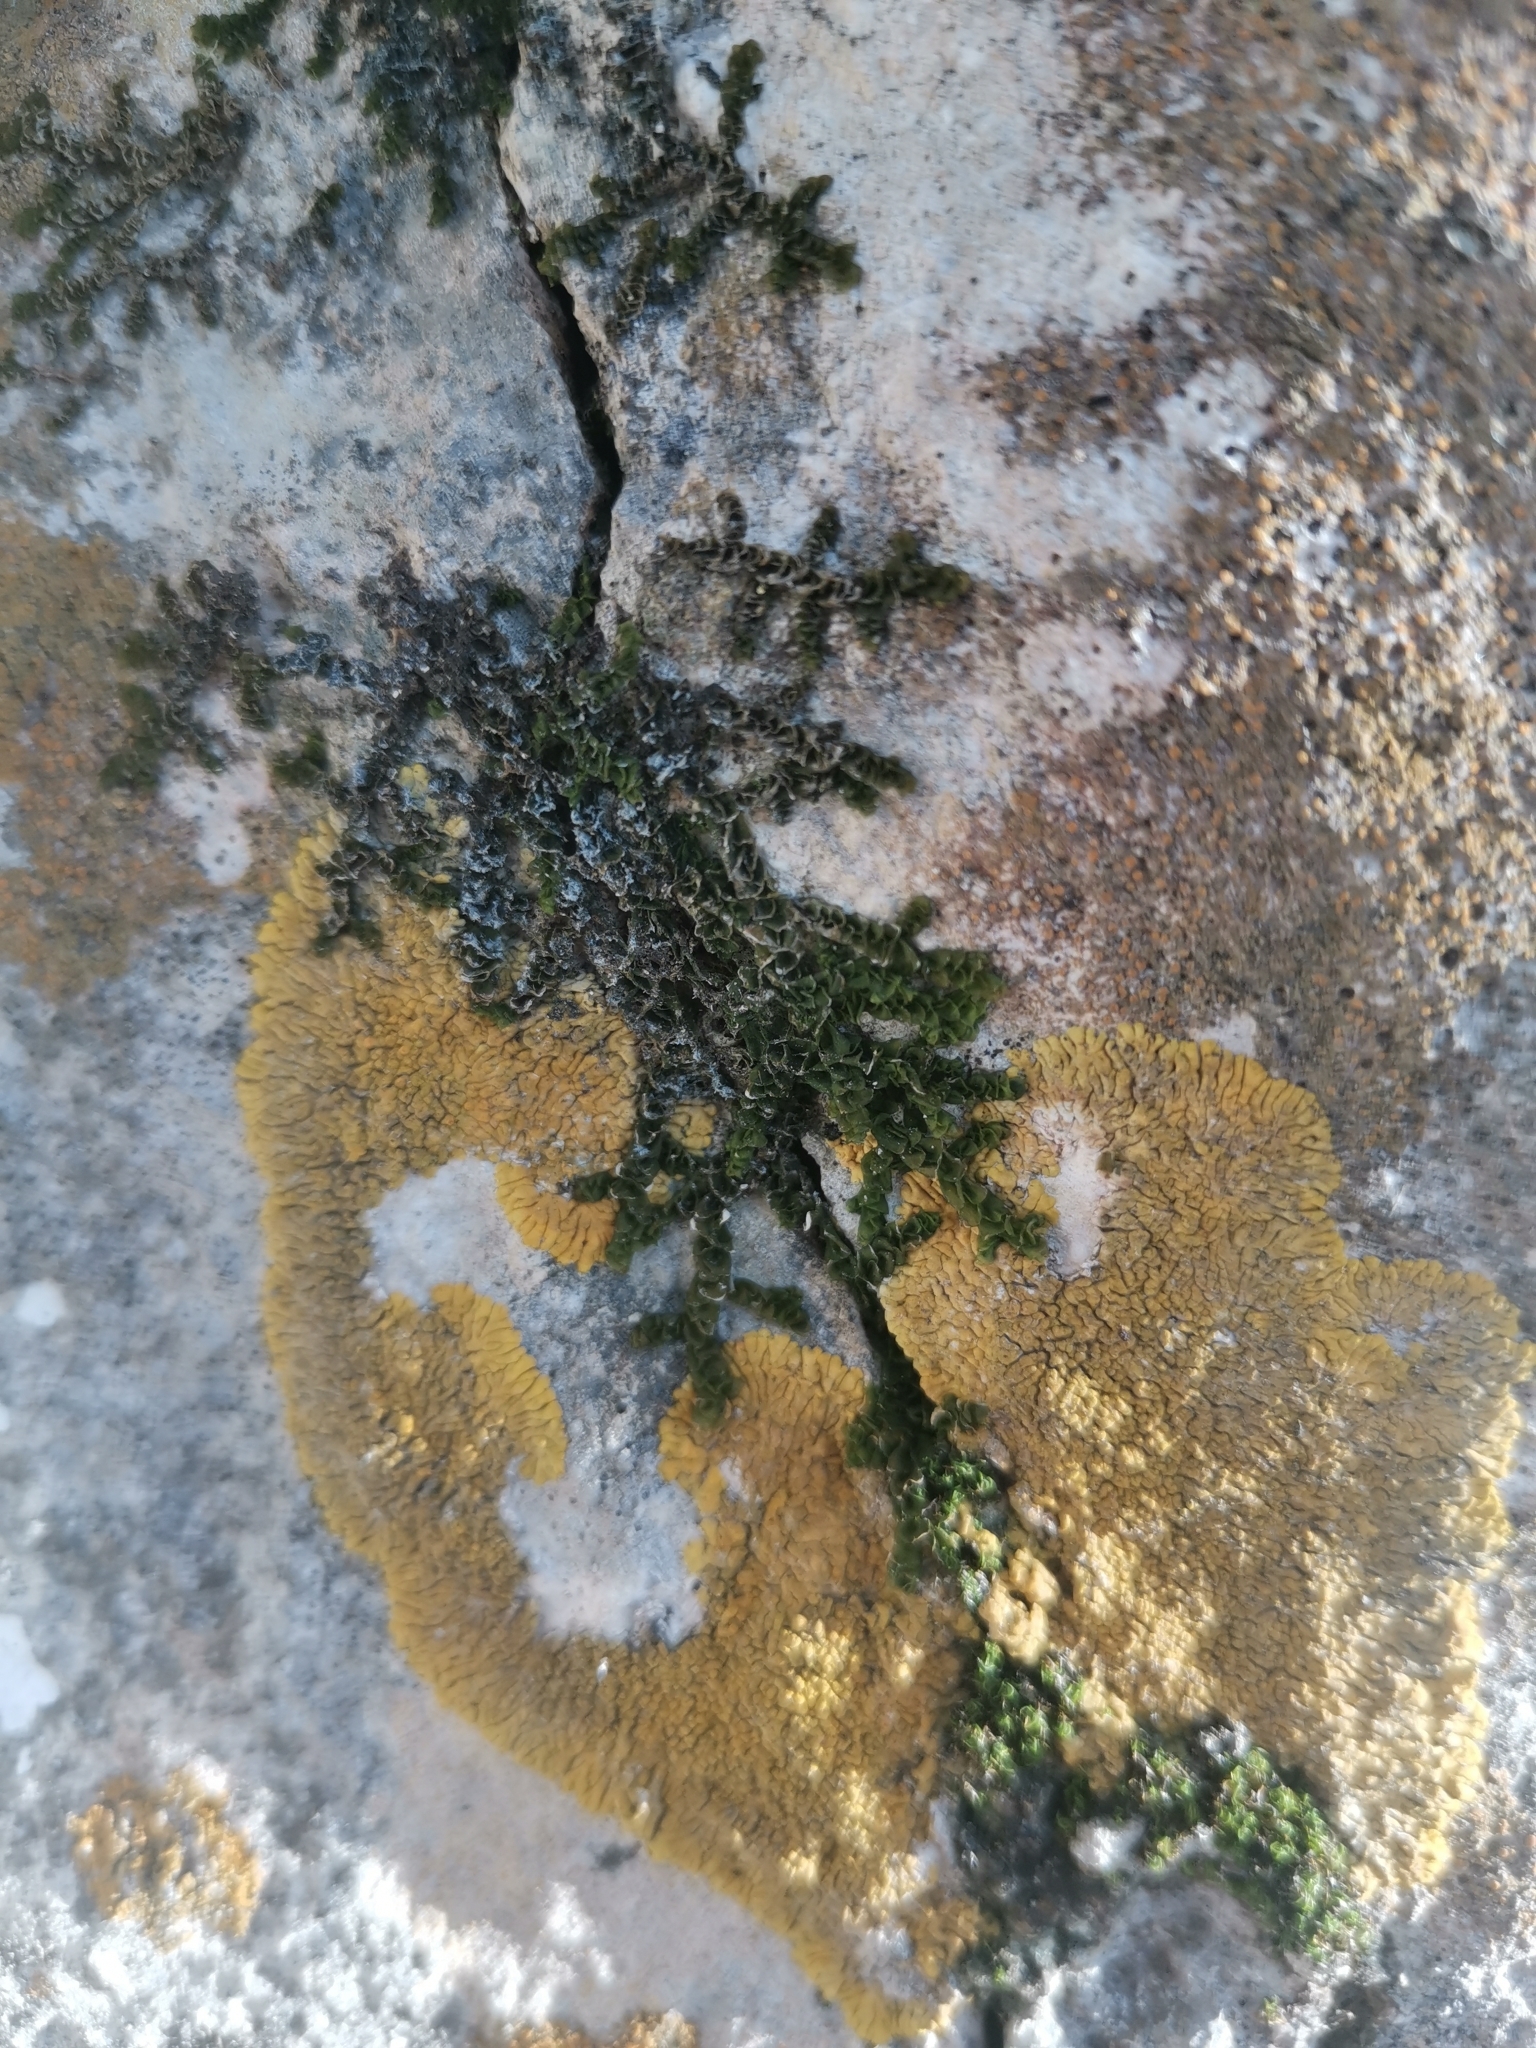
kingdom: Plantae
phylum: Marchantiophyta
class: Jungermanniopsida
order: Porellales
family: Porellaceae
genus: Porella
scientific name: Porella platyphylla
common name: Wall scalewort
